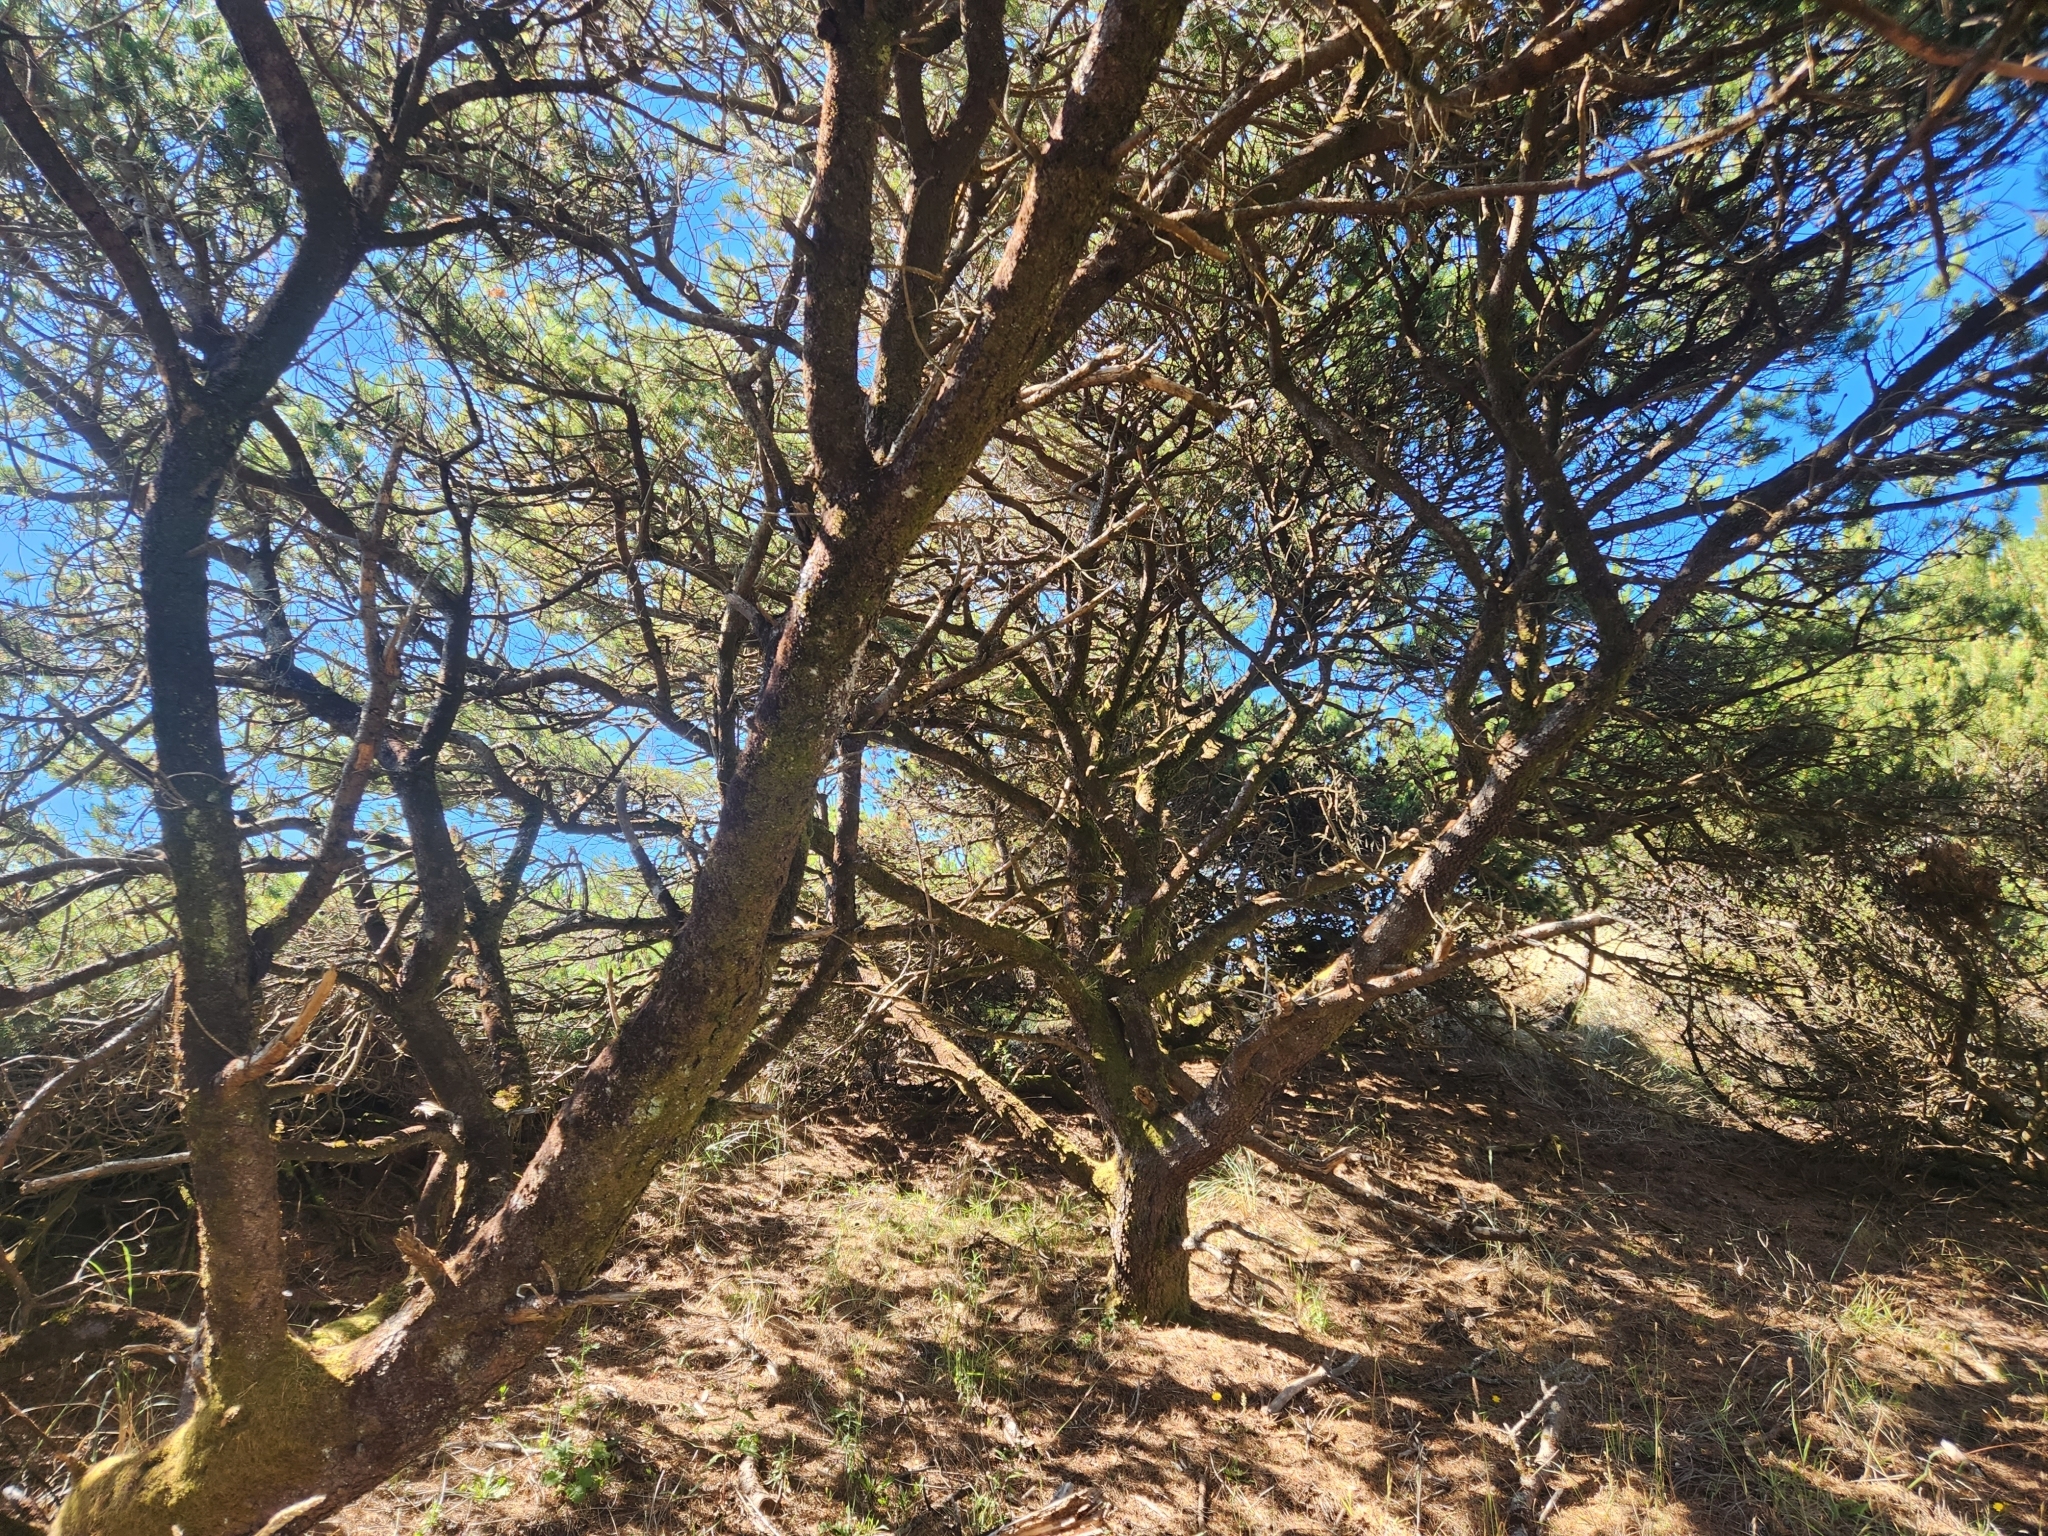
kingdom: Plantae
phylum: Tracheophyta
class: Pinopsida
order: Pinales
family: Pinaceae
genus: Pinus
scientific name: Pinus contorta
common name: Lodgepole pine
